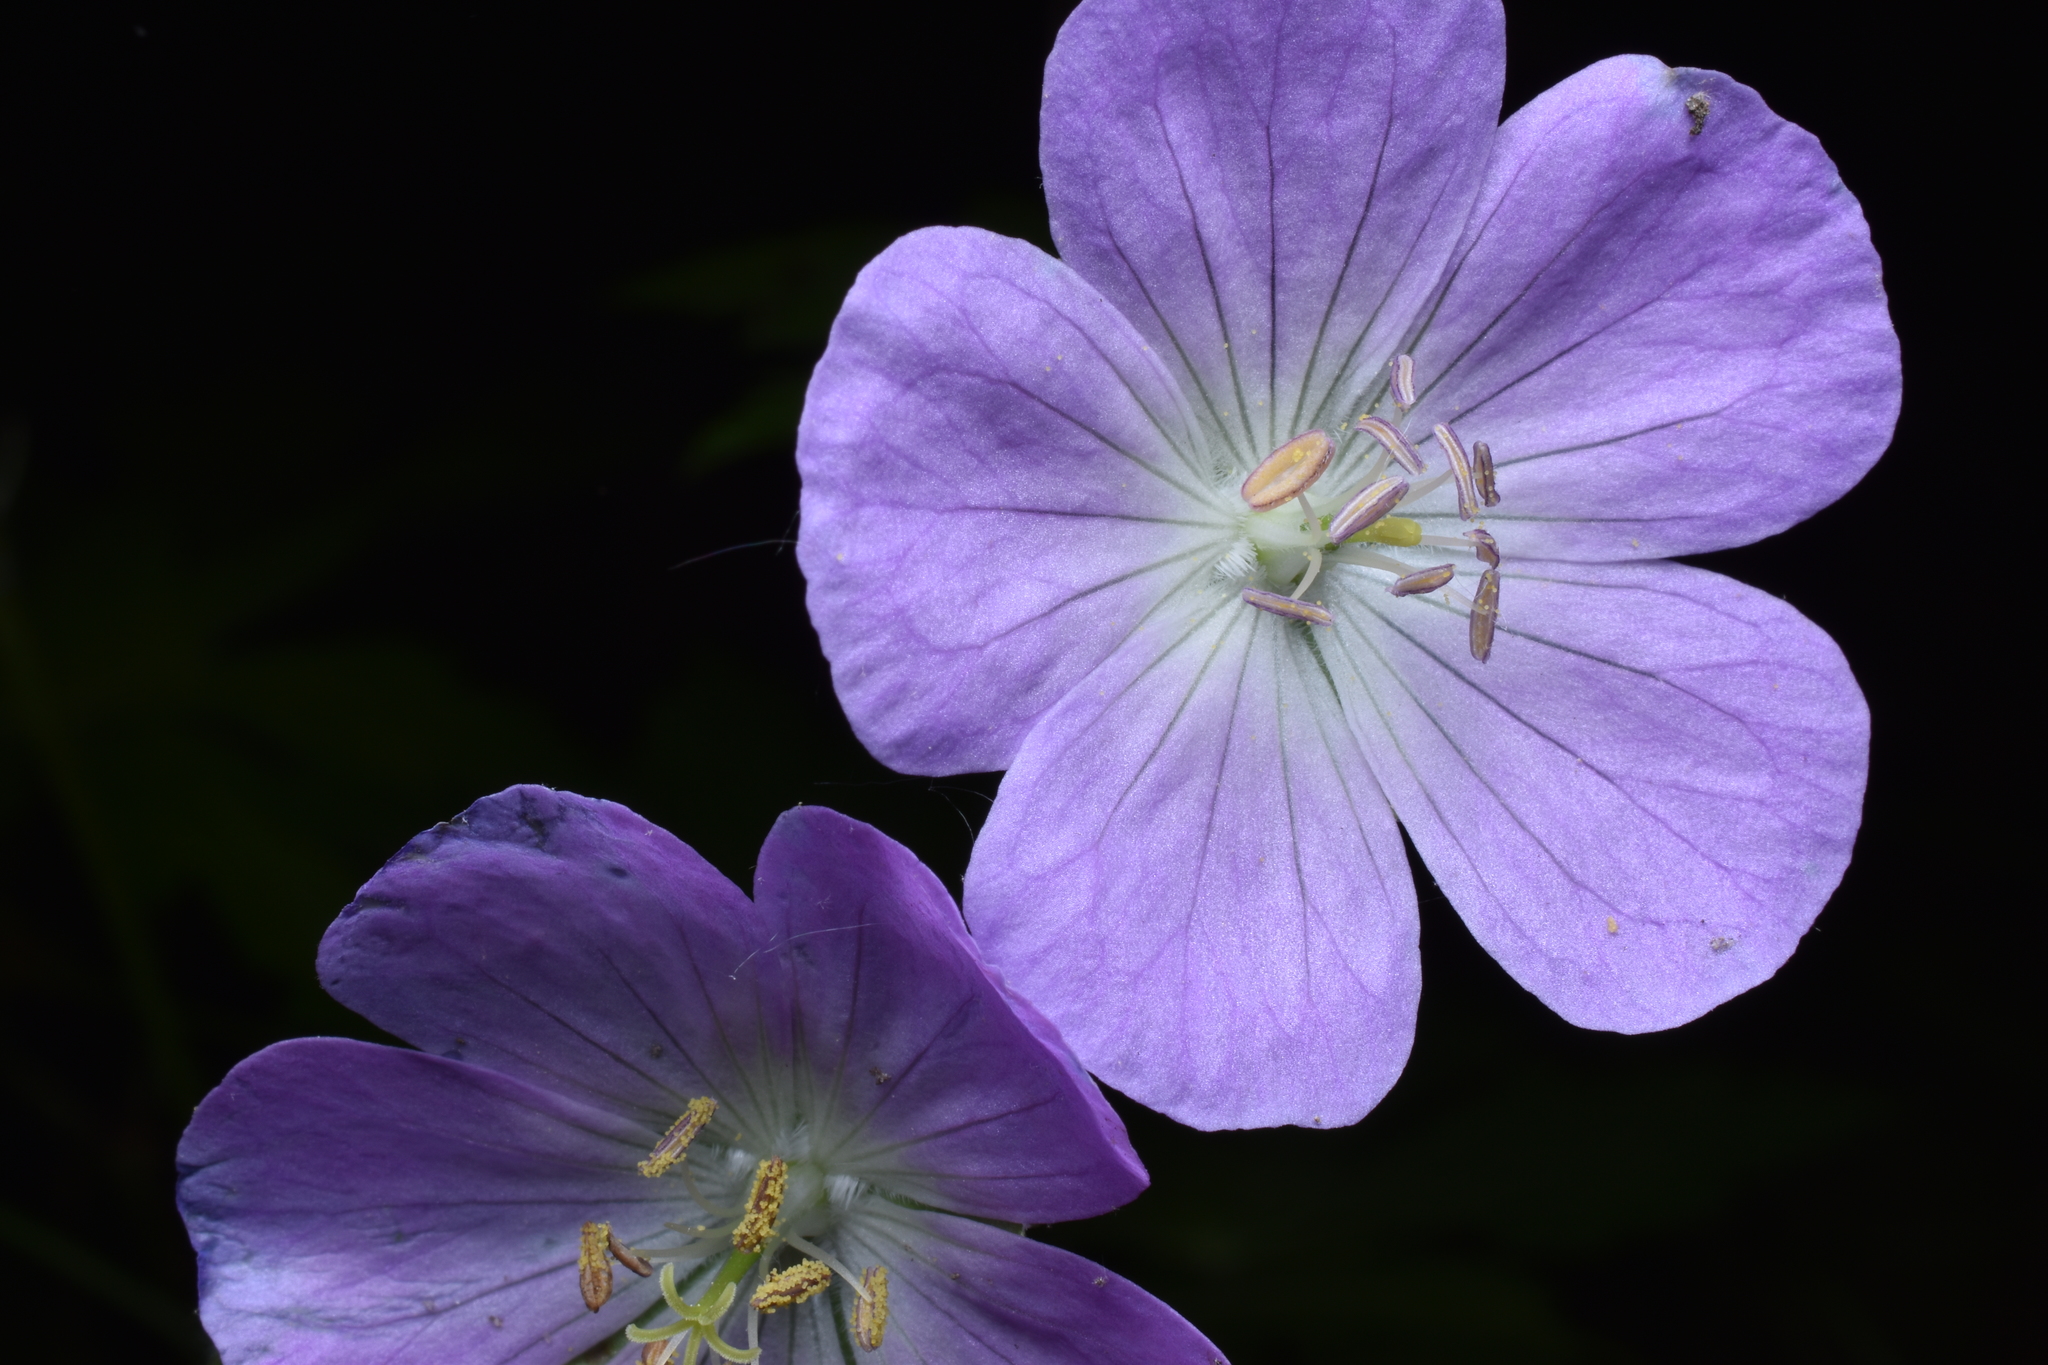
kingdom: Plantae
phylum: Tracheophyta
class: Magnoliopsida
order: Geraniales
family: Geraniaceae
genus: Geranium
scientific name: Geranium maculatum
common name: Spotted geranium
